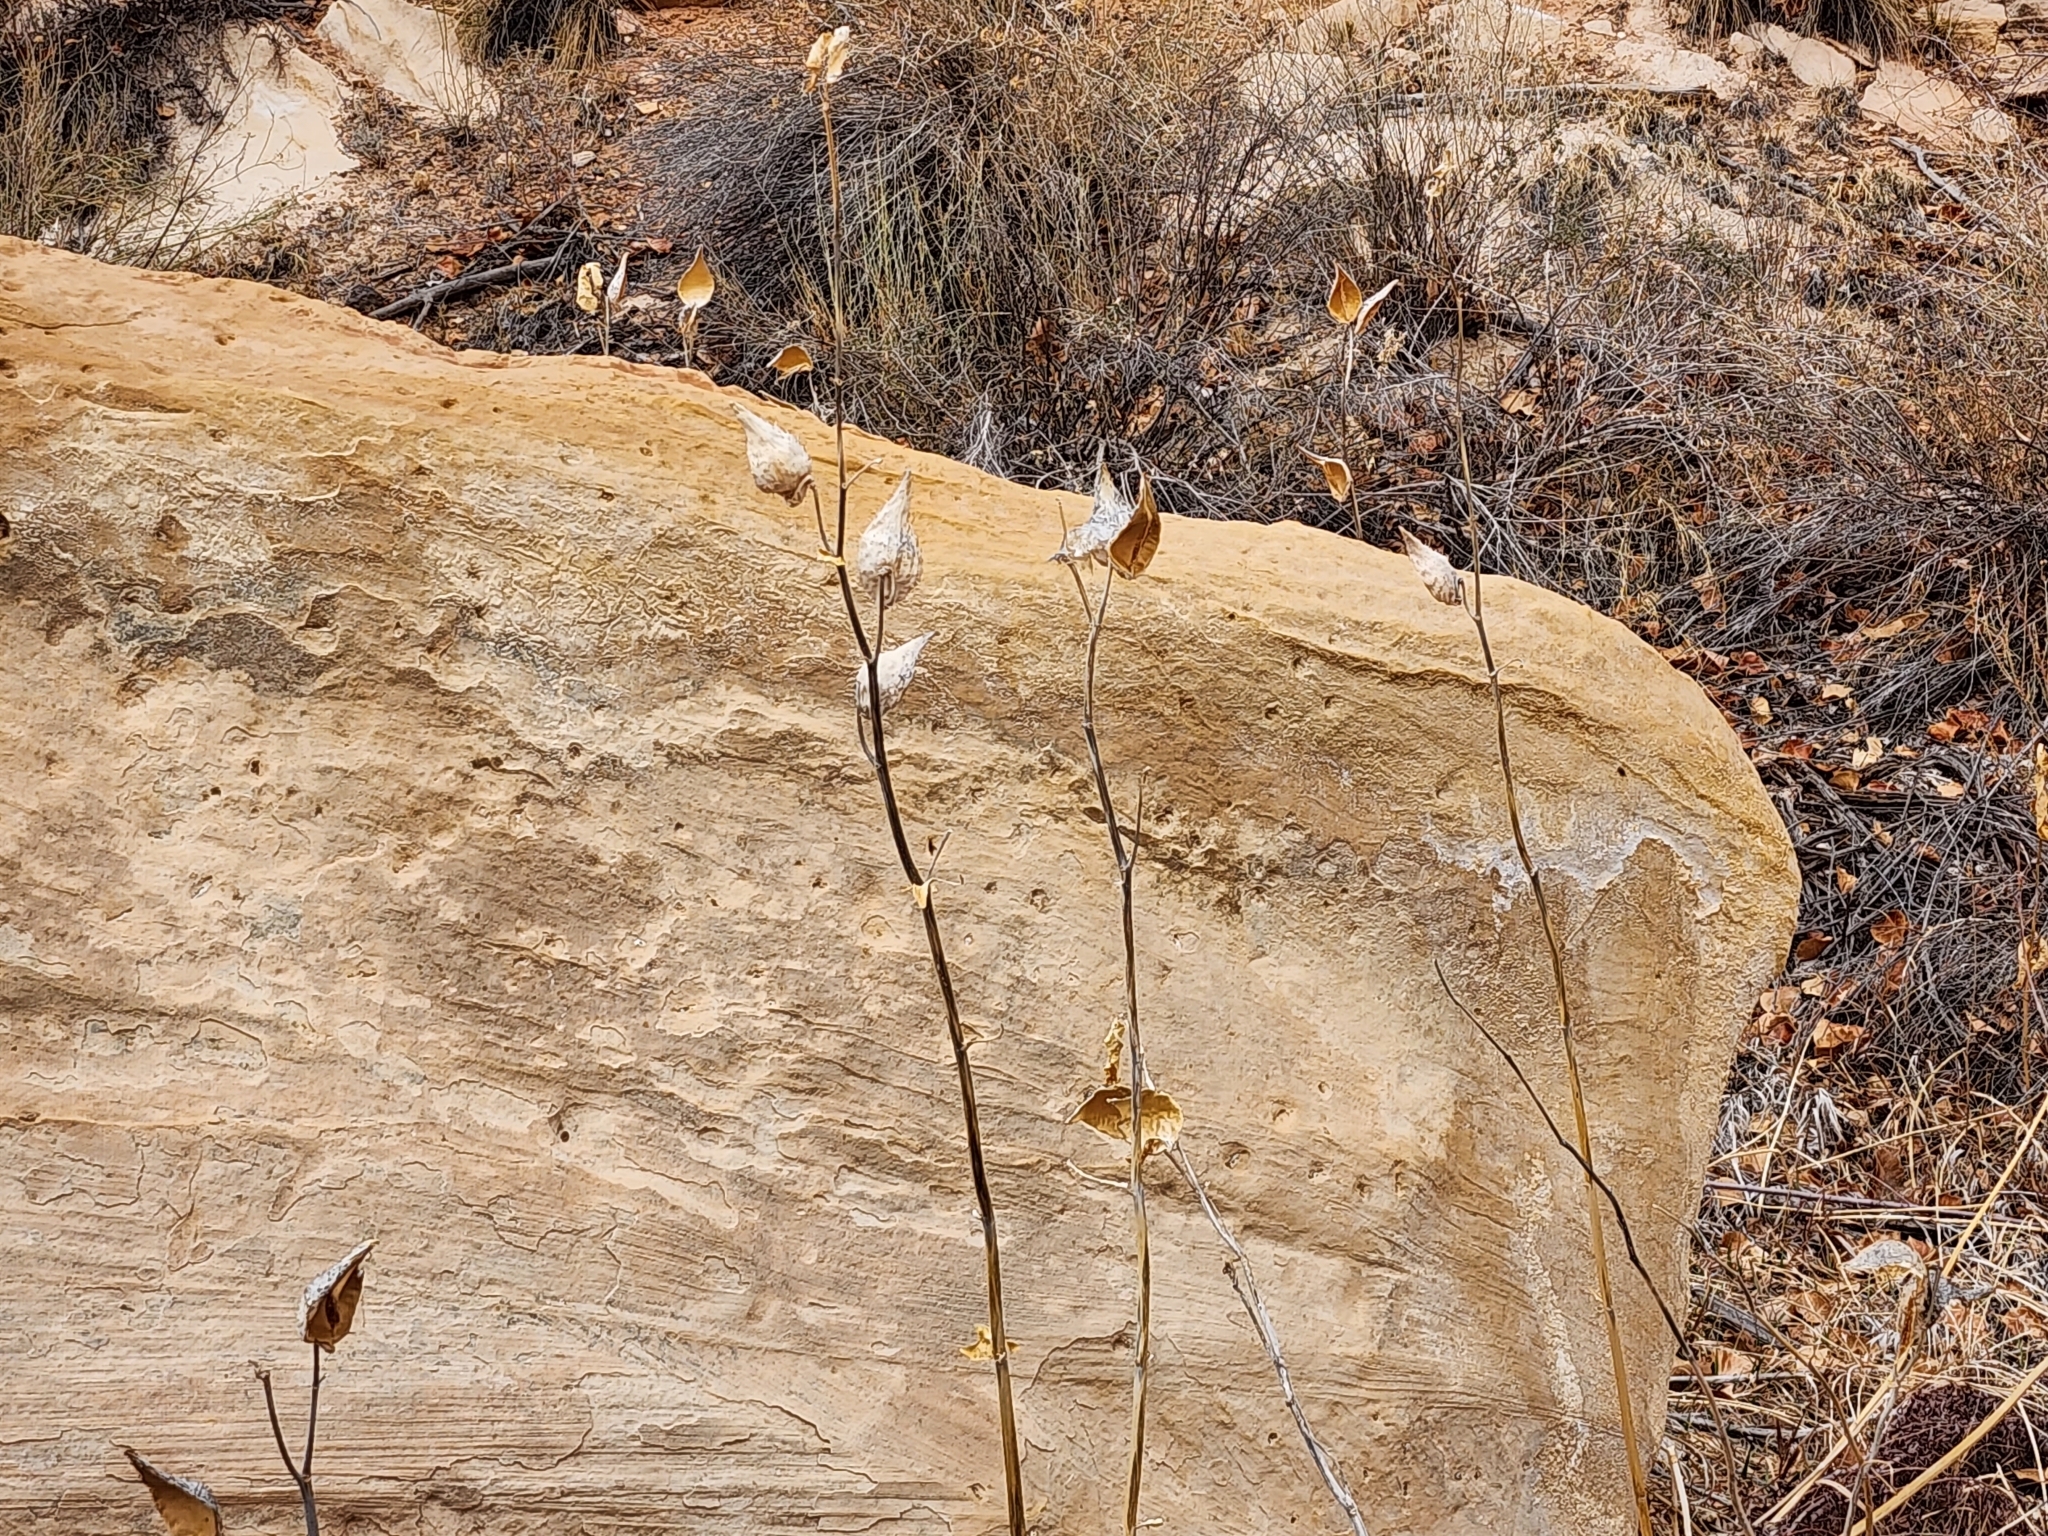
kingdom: Plantae
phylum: Tracheophyta
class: Magnoliopsida
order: Gentianales
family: Apocynaceae
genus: Asclepias
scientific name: Asclepias speciosa
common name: Showy milkweed
